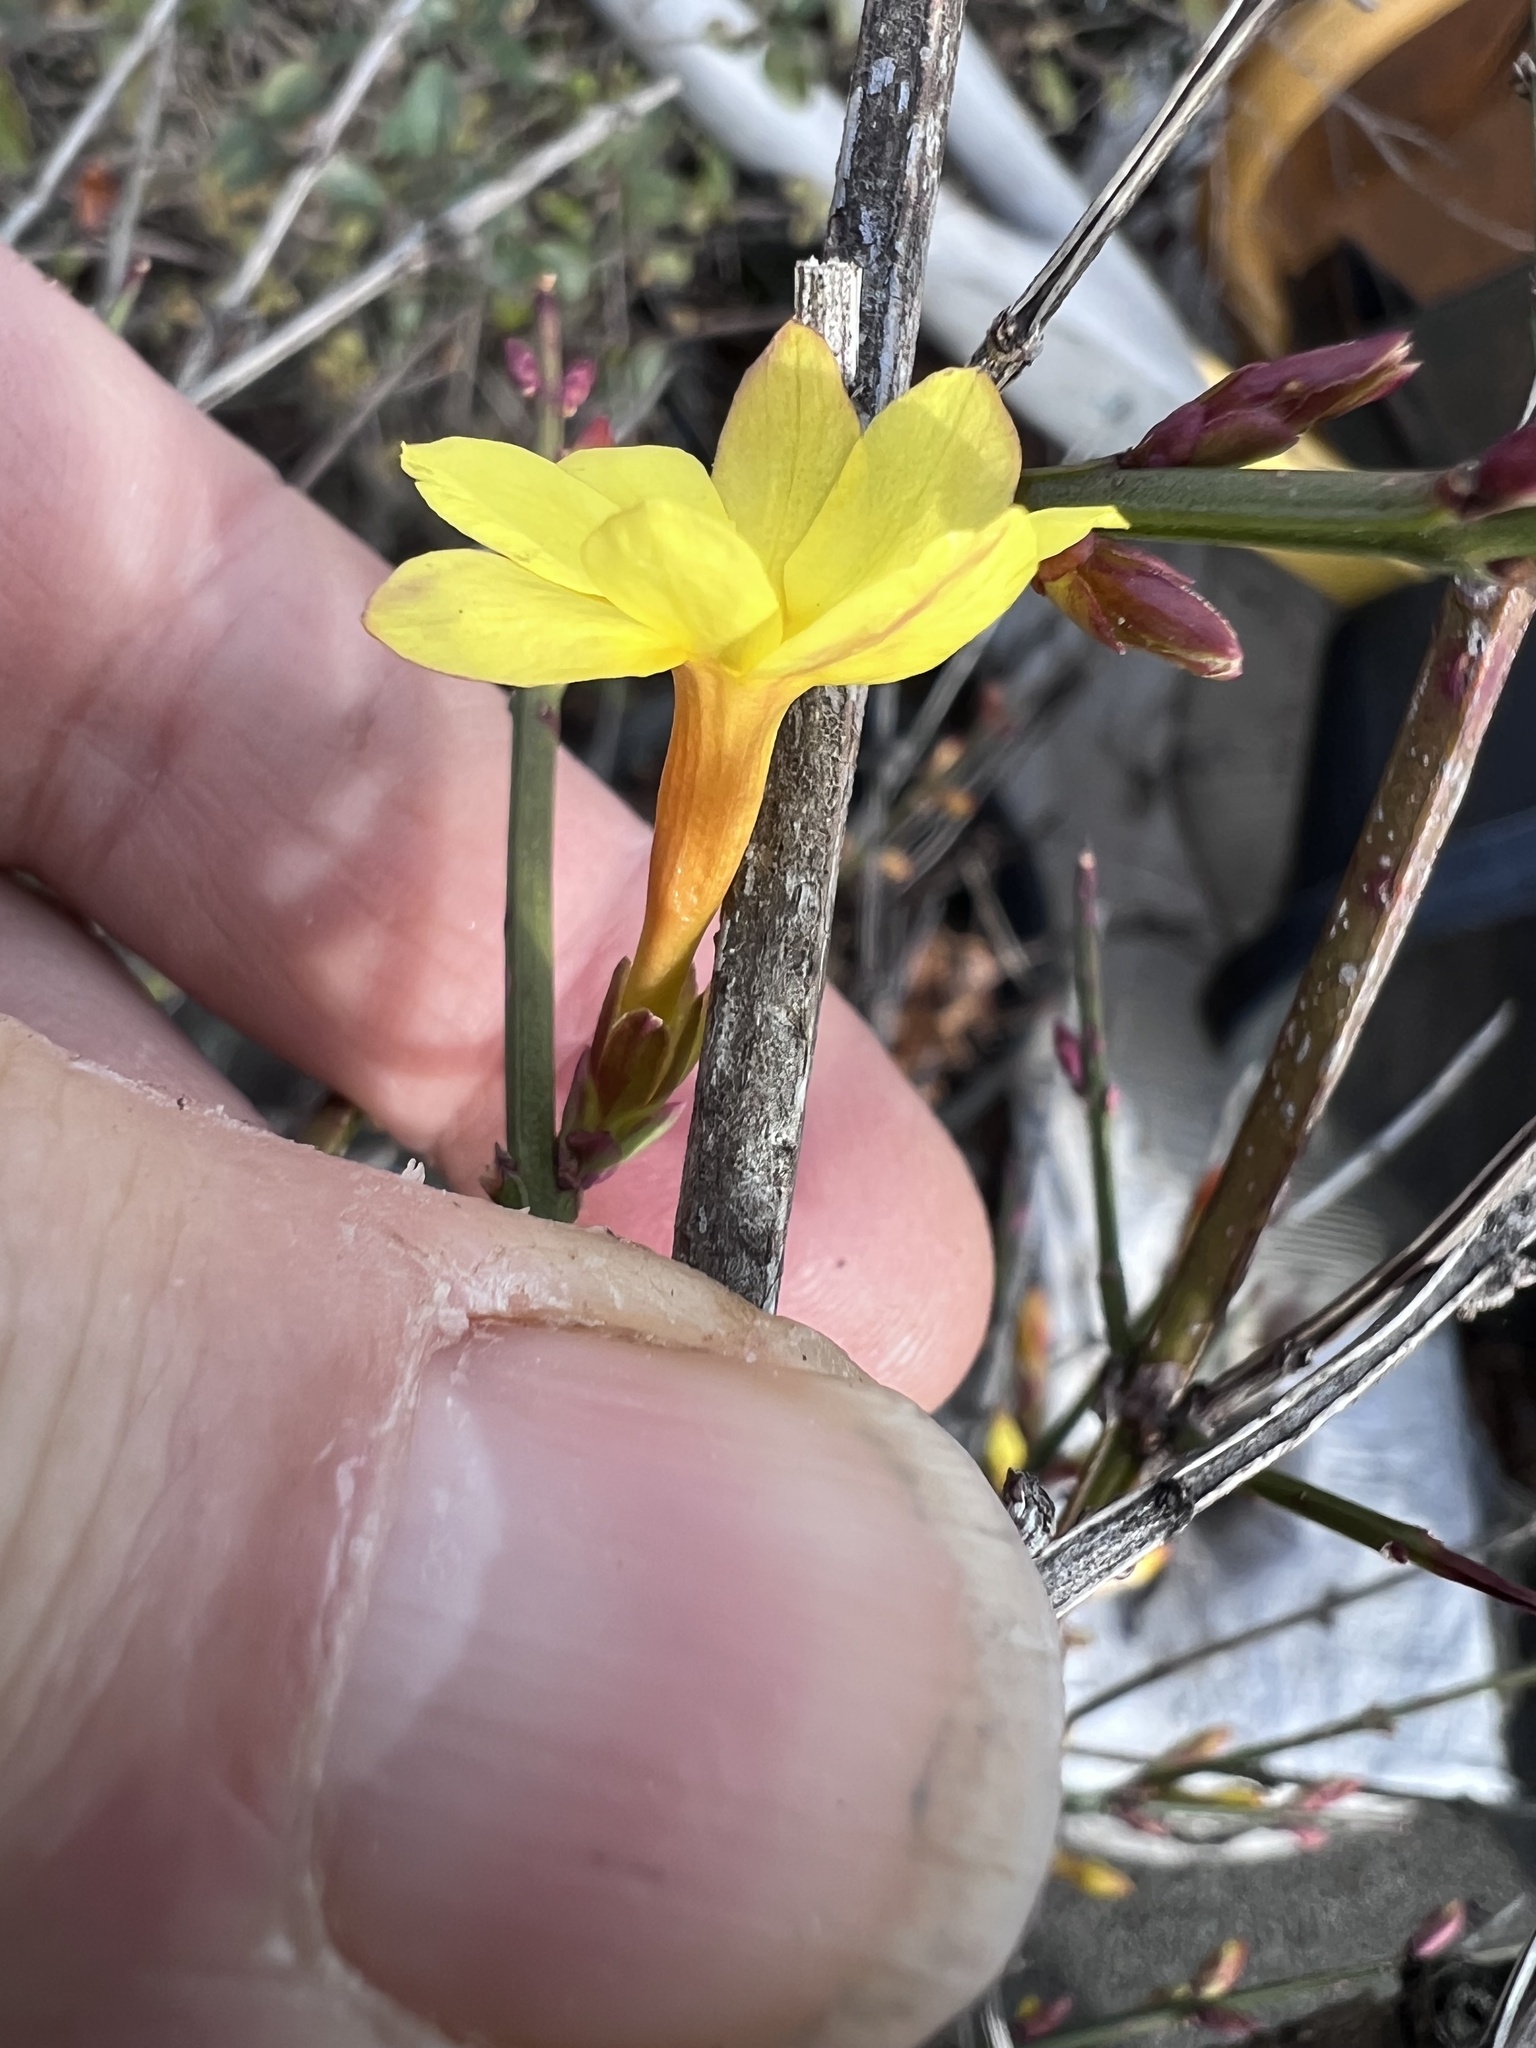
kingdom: Plantae
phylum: Tracheophyta
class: Magnoliopsida
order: Lamiales
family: Oleaceae
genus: Jasminum
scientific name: Jasminum nudiflorum
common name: Winter jasmine
